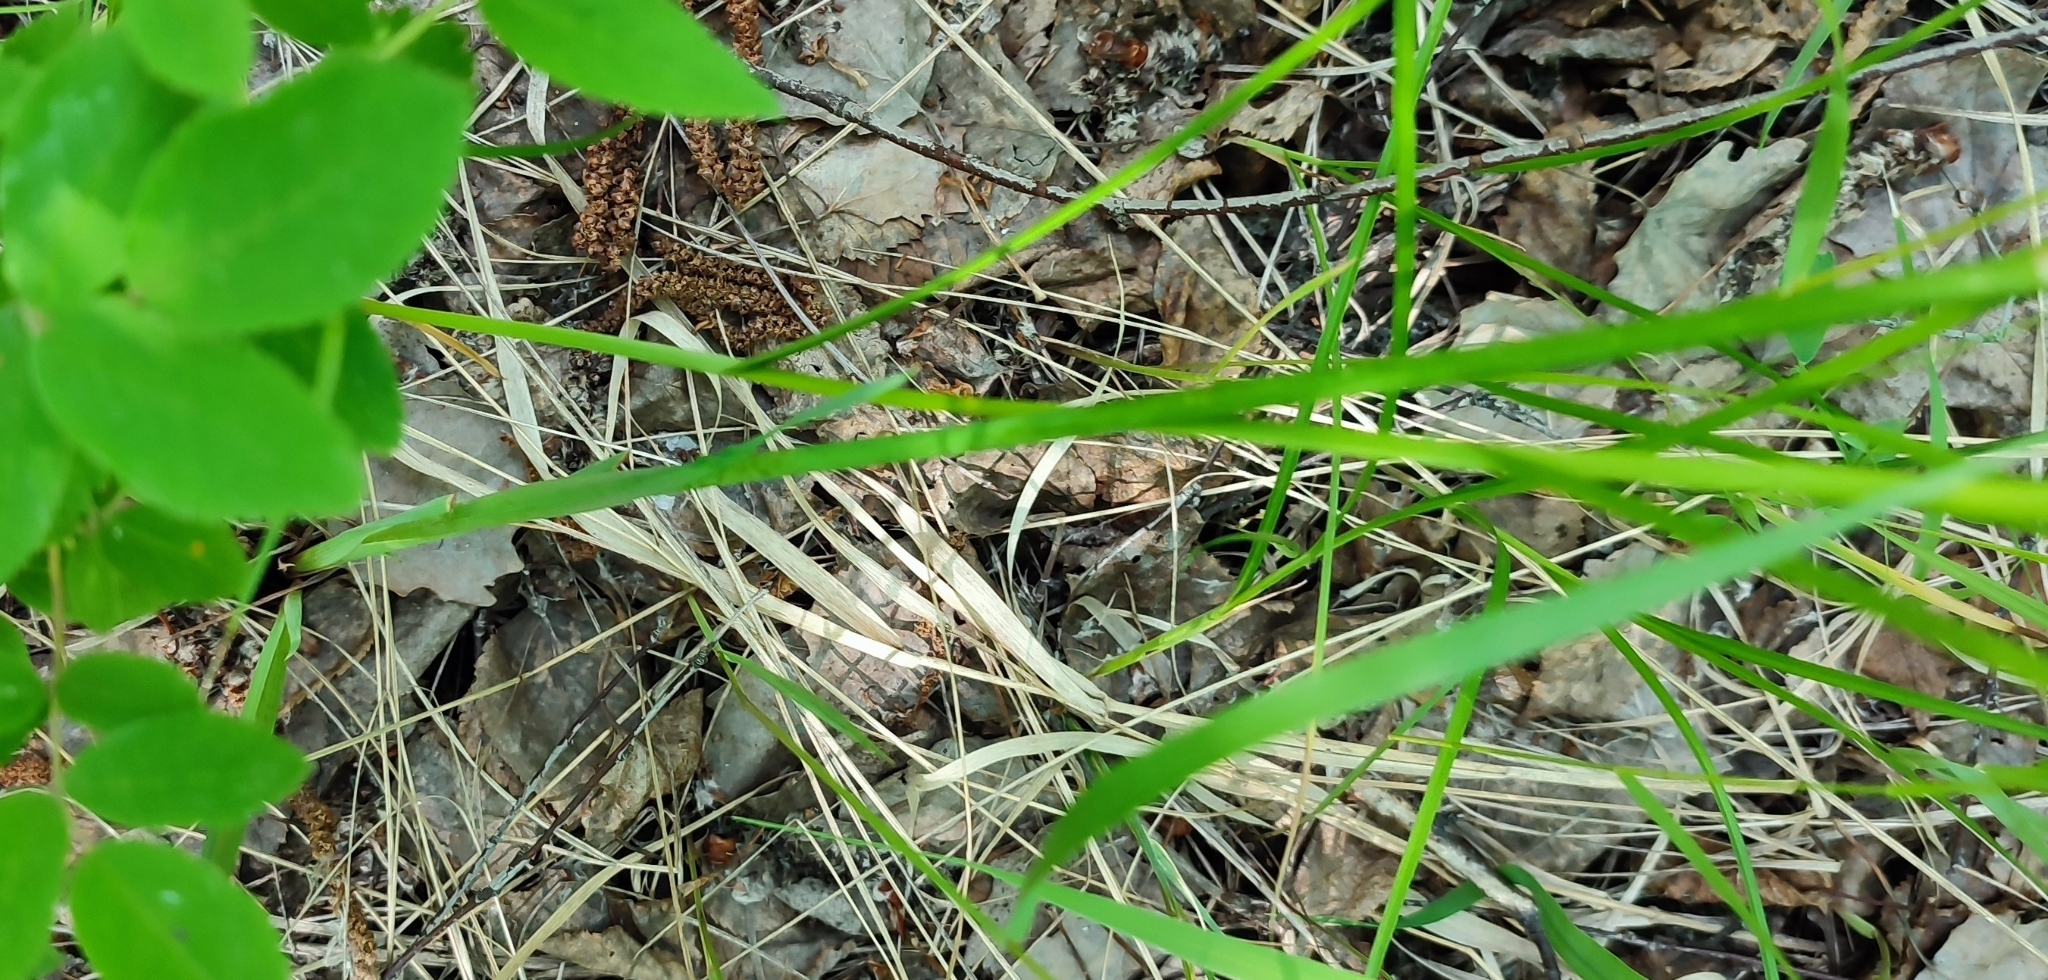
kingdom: Plantae
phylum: Tracheophyta
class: Liliopsida
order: Asparagales
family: Iridaceae
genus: Iris
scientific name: Iris sibirica
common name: Siberian iris
